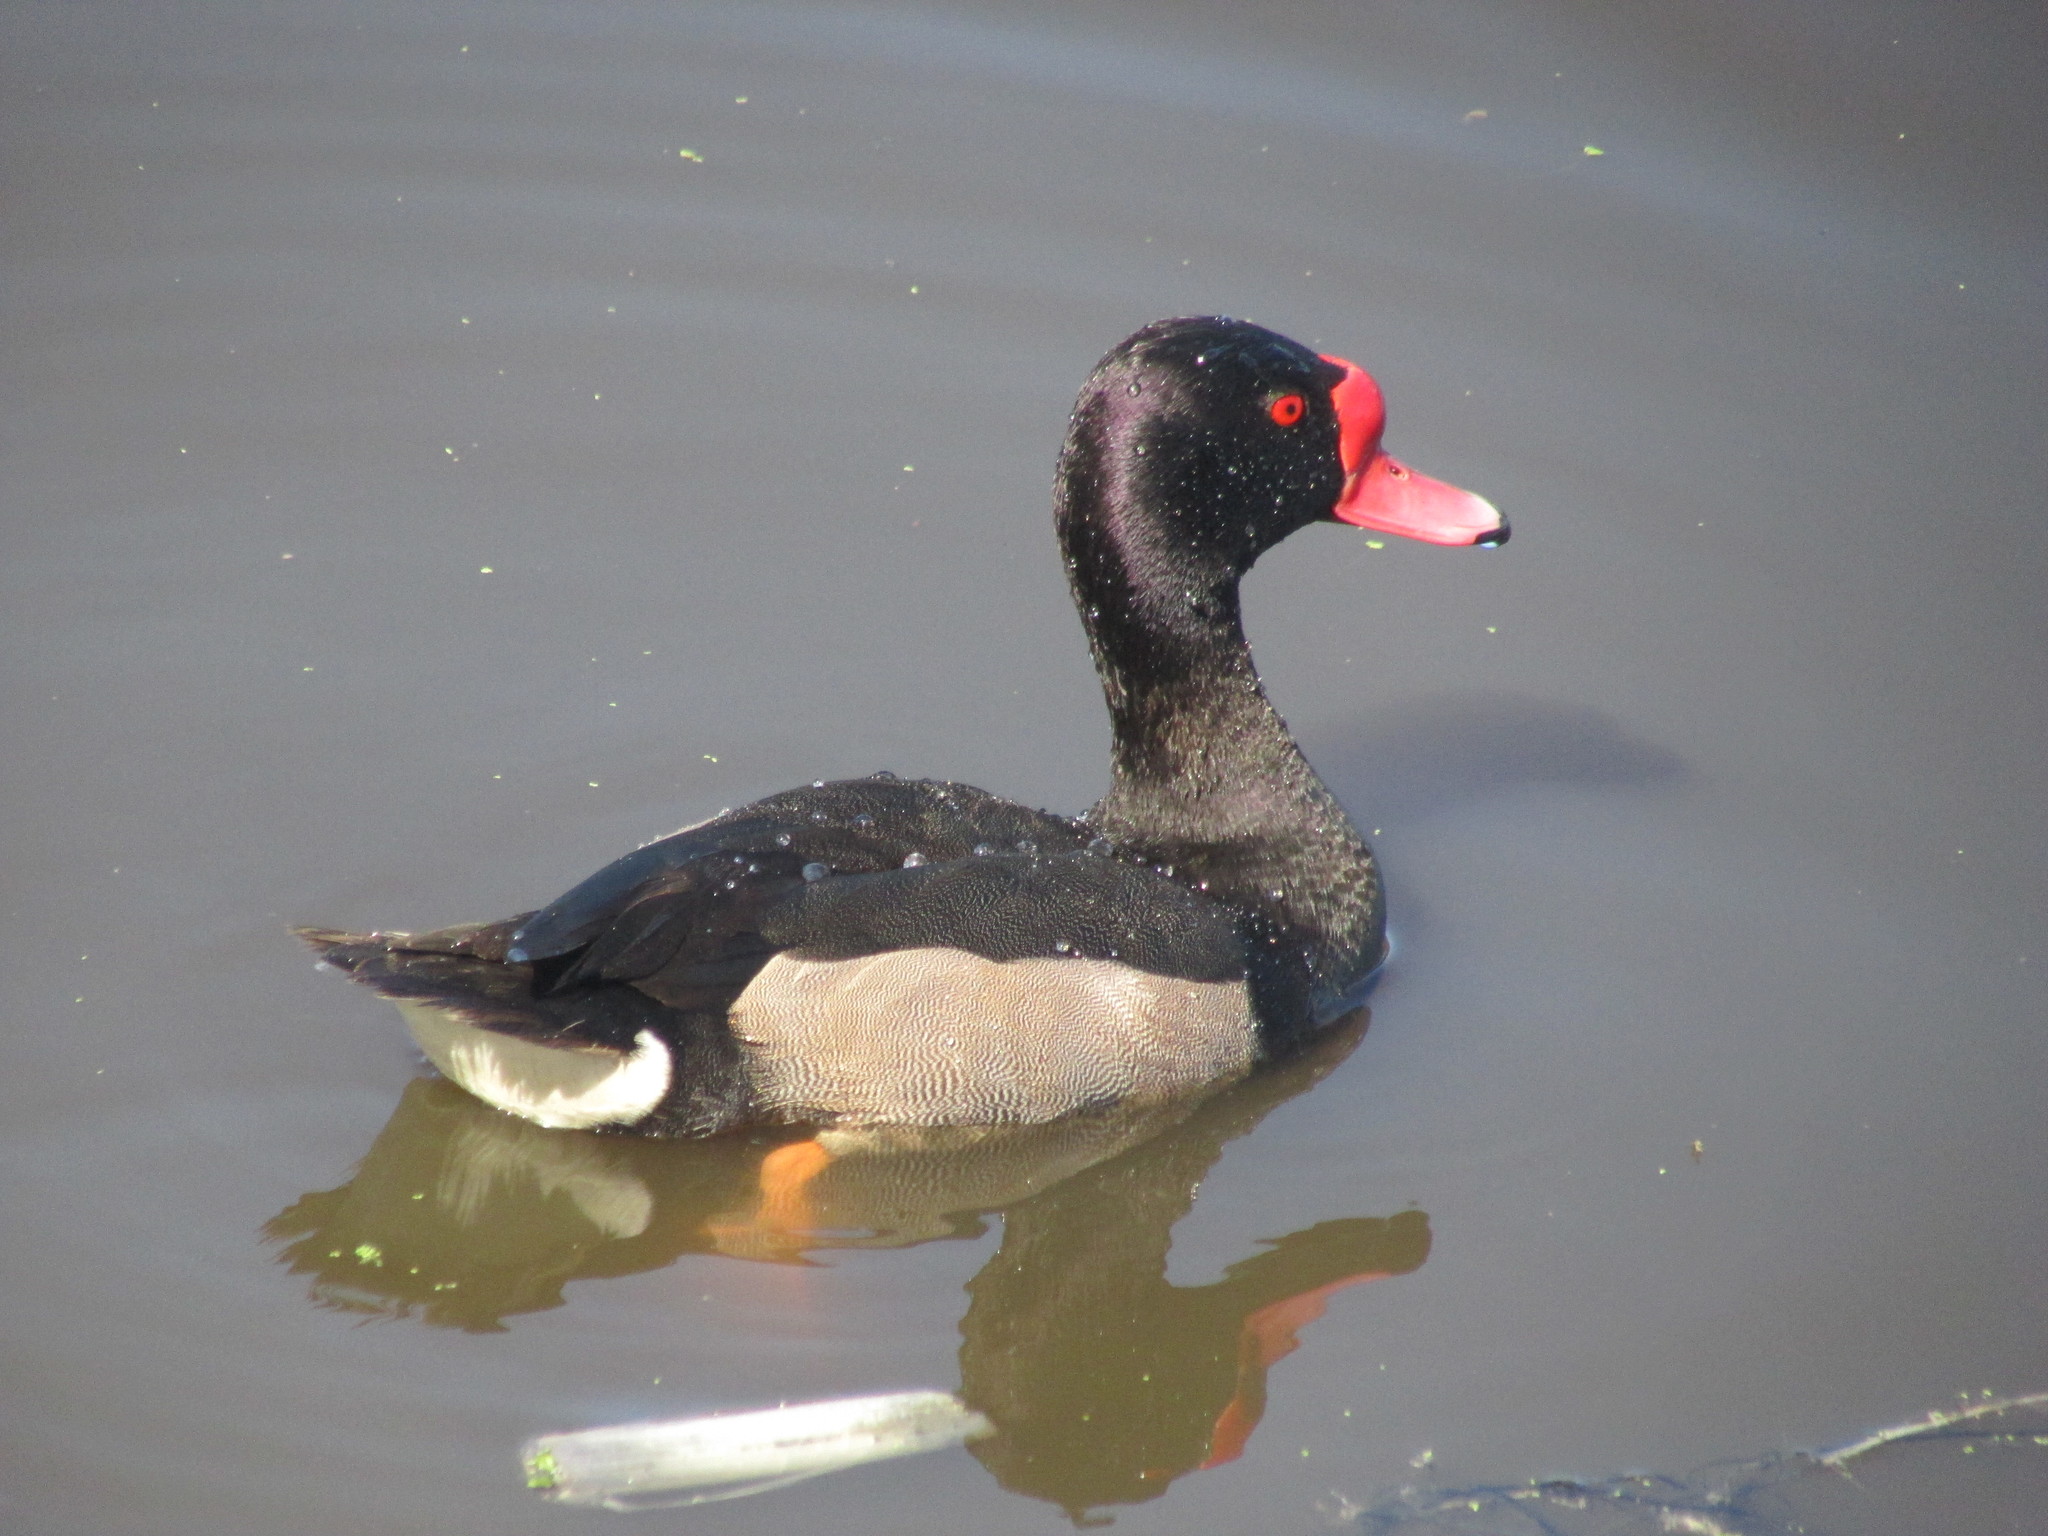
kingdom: Animalia
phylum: Chordata
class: Aves
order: Anseriformes
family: Anatidae
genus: Netta
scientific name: Netta peposaca
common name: Rosy-billed pochard
